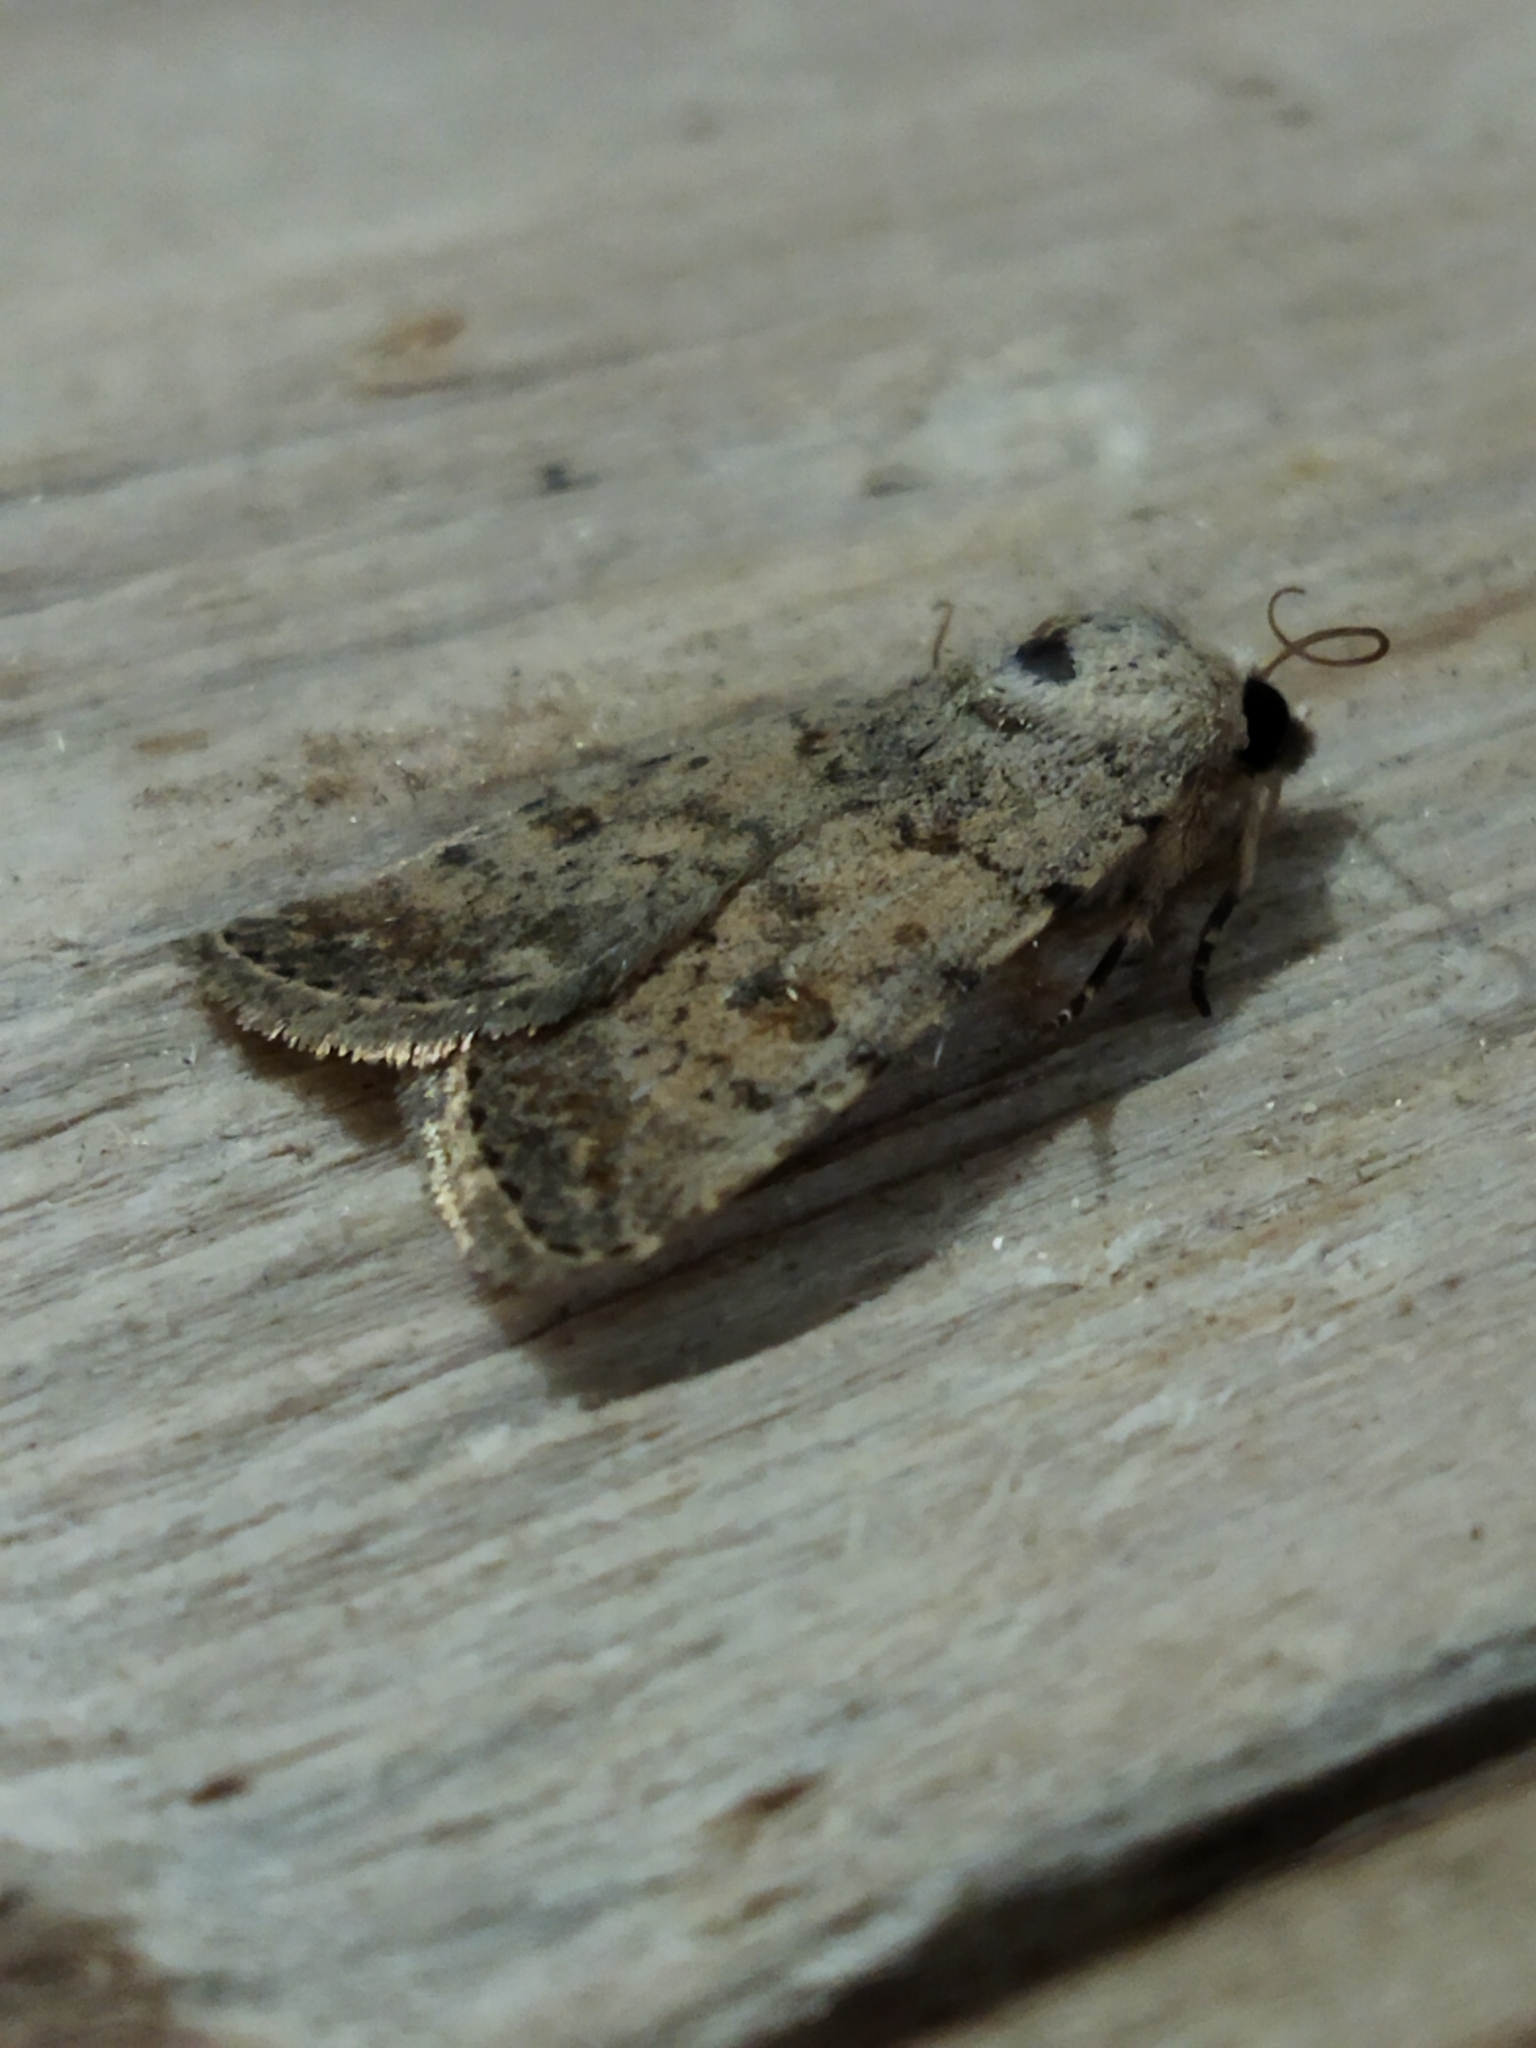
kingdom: Animalia
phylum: Arthropoda
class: Insecta
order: Lepidoptera
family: Noctuidae
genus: Caradrina
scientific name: Caradrina clavipalpis
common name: Pale mottled willow
